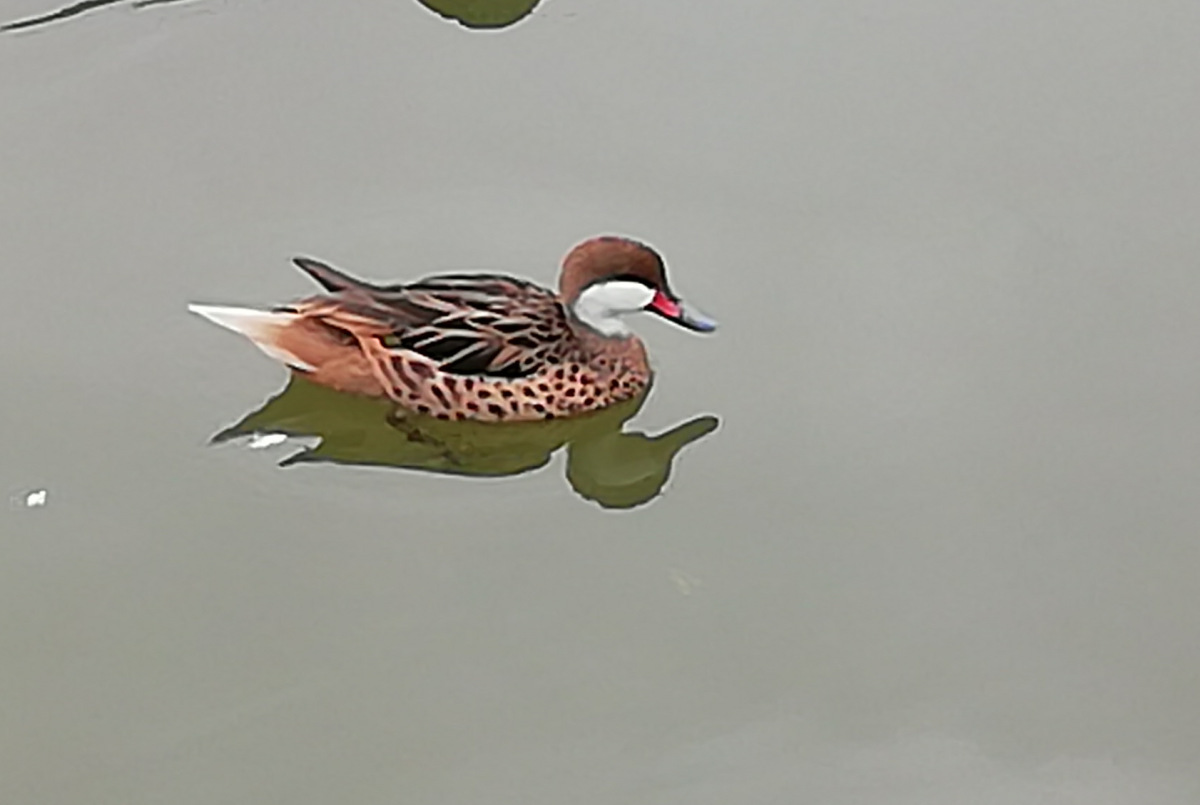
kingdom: Animalia
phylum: Chordata
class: Aves
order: Anseriformes
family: Anatidae
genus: Anas
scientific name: Anas bahamensis
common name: White-cheeked pintail
